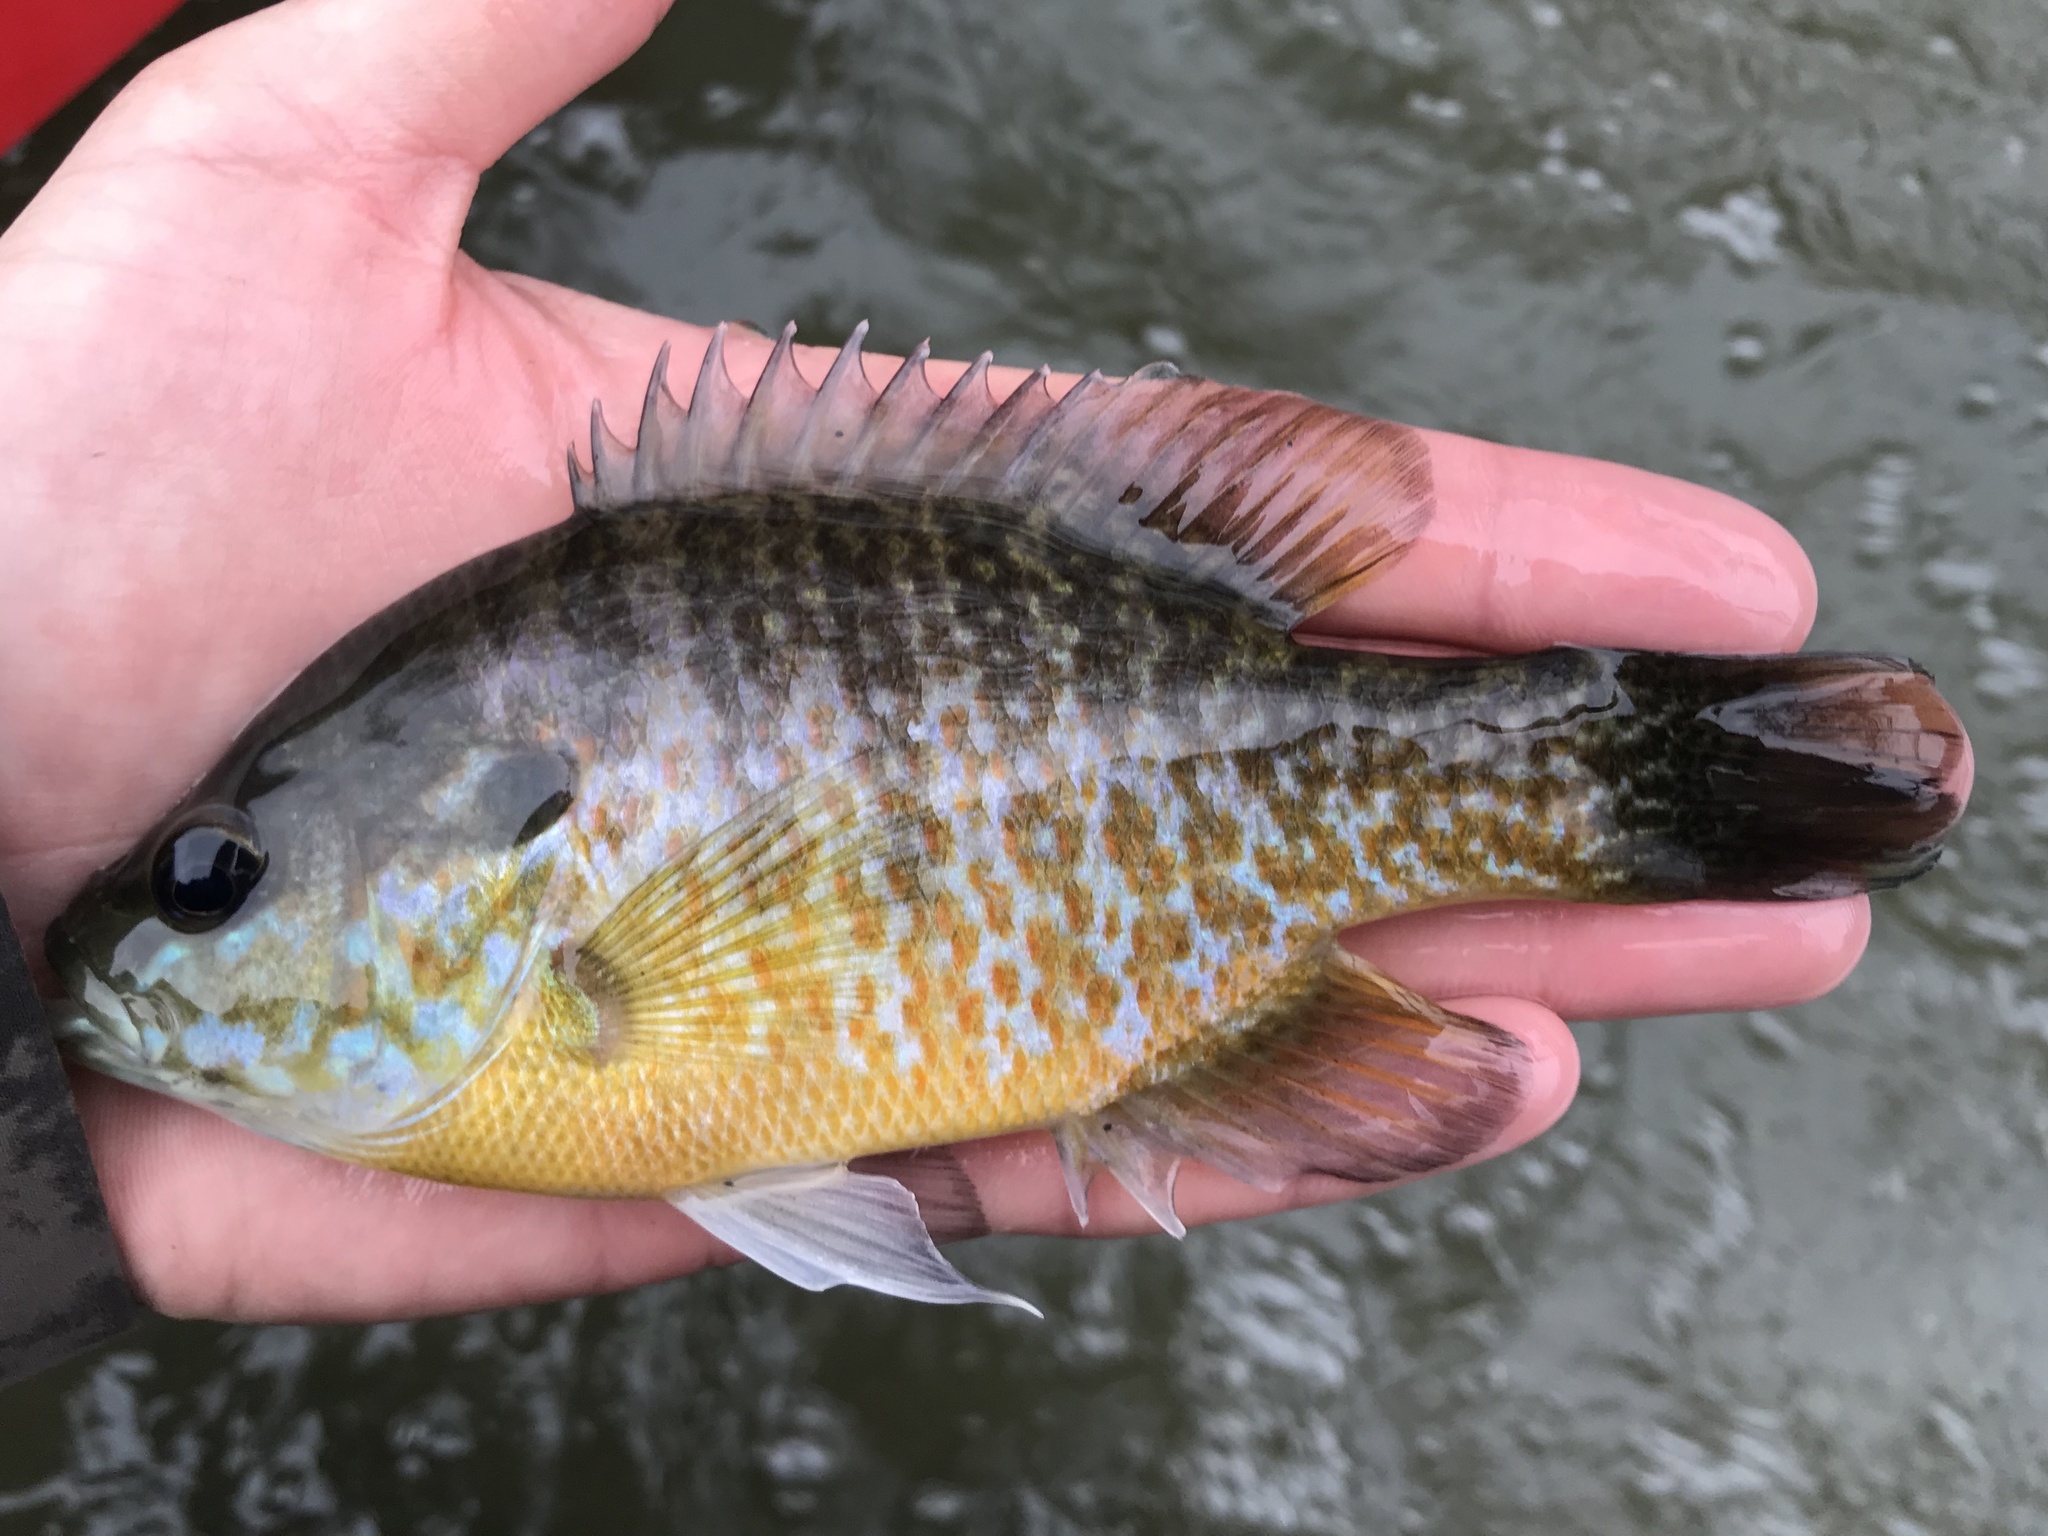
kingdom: Animalia
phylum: Chordata
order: Perciformes
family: Centrarchidae
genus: Lepomis
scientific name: Lepomis
